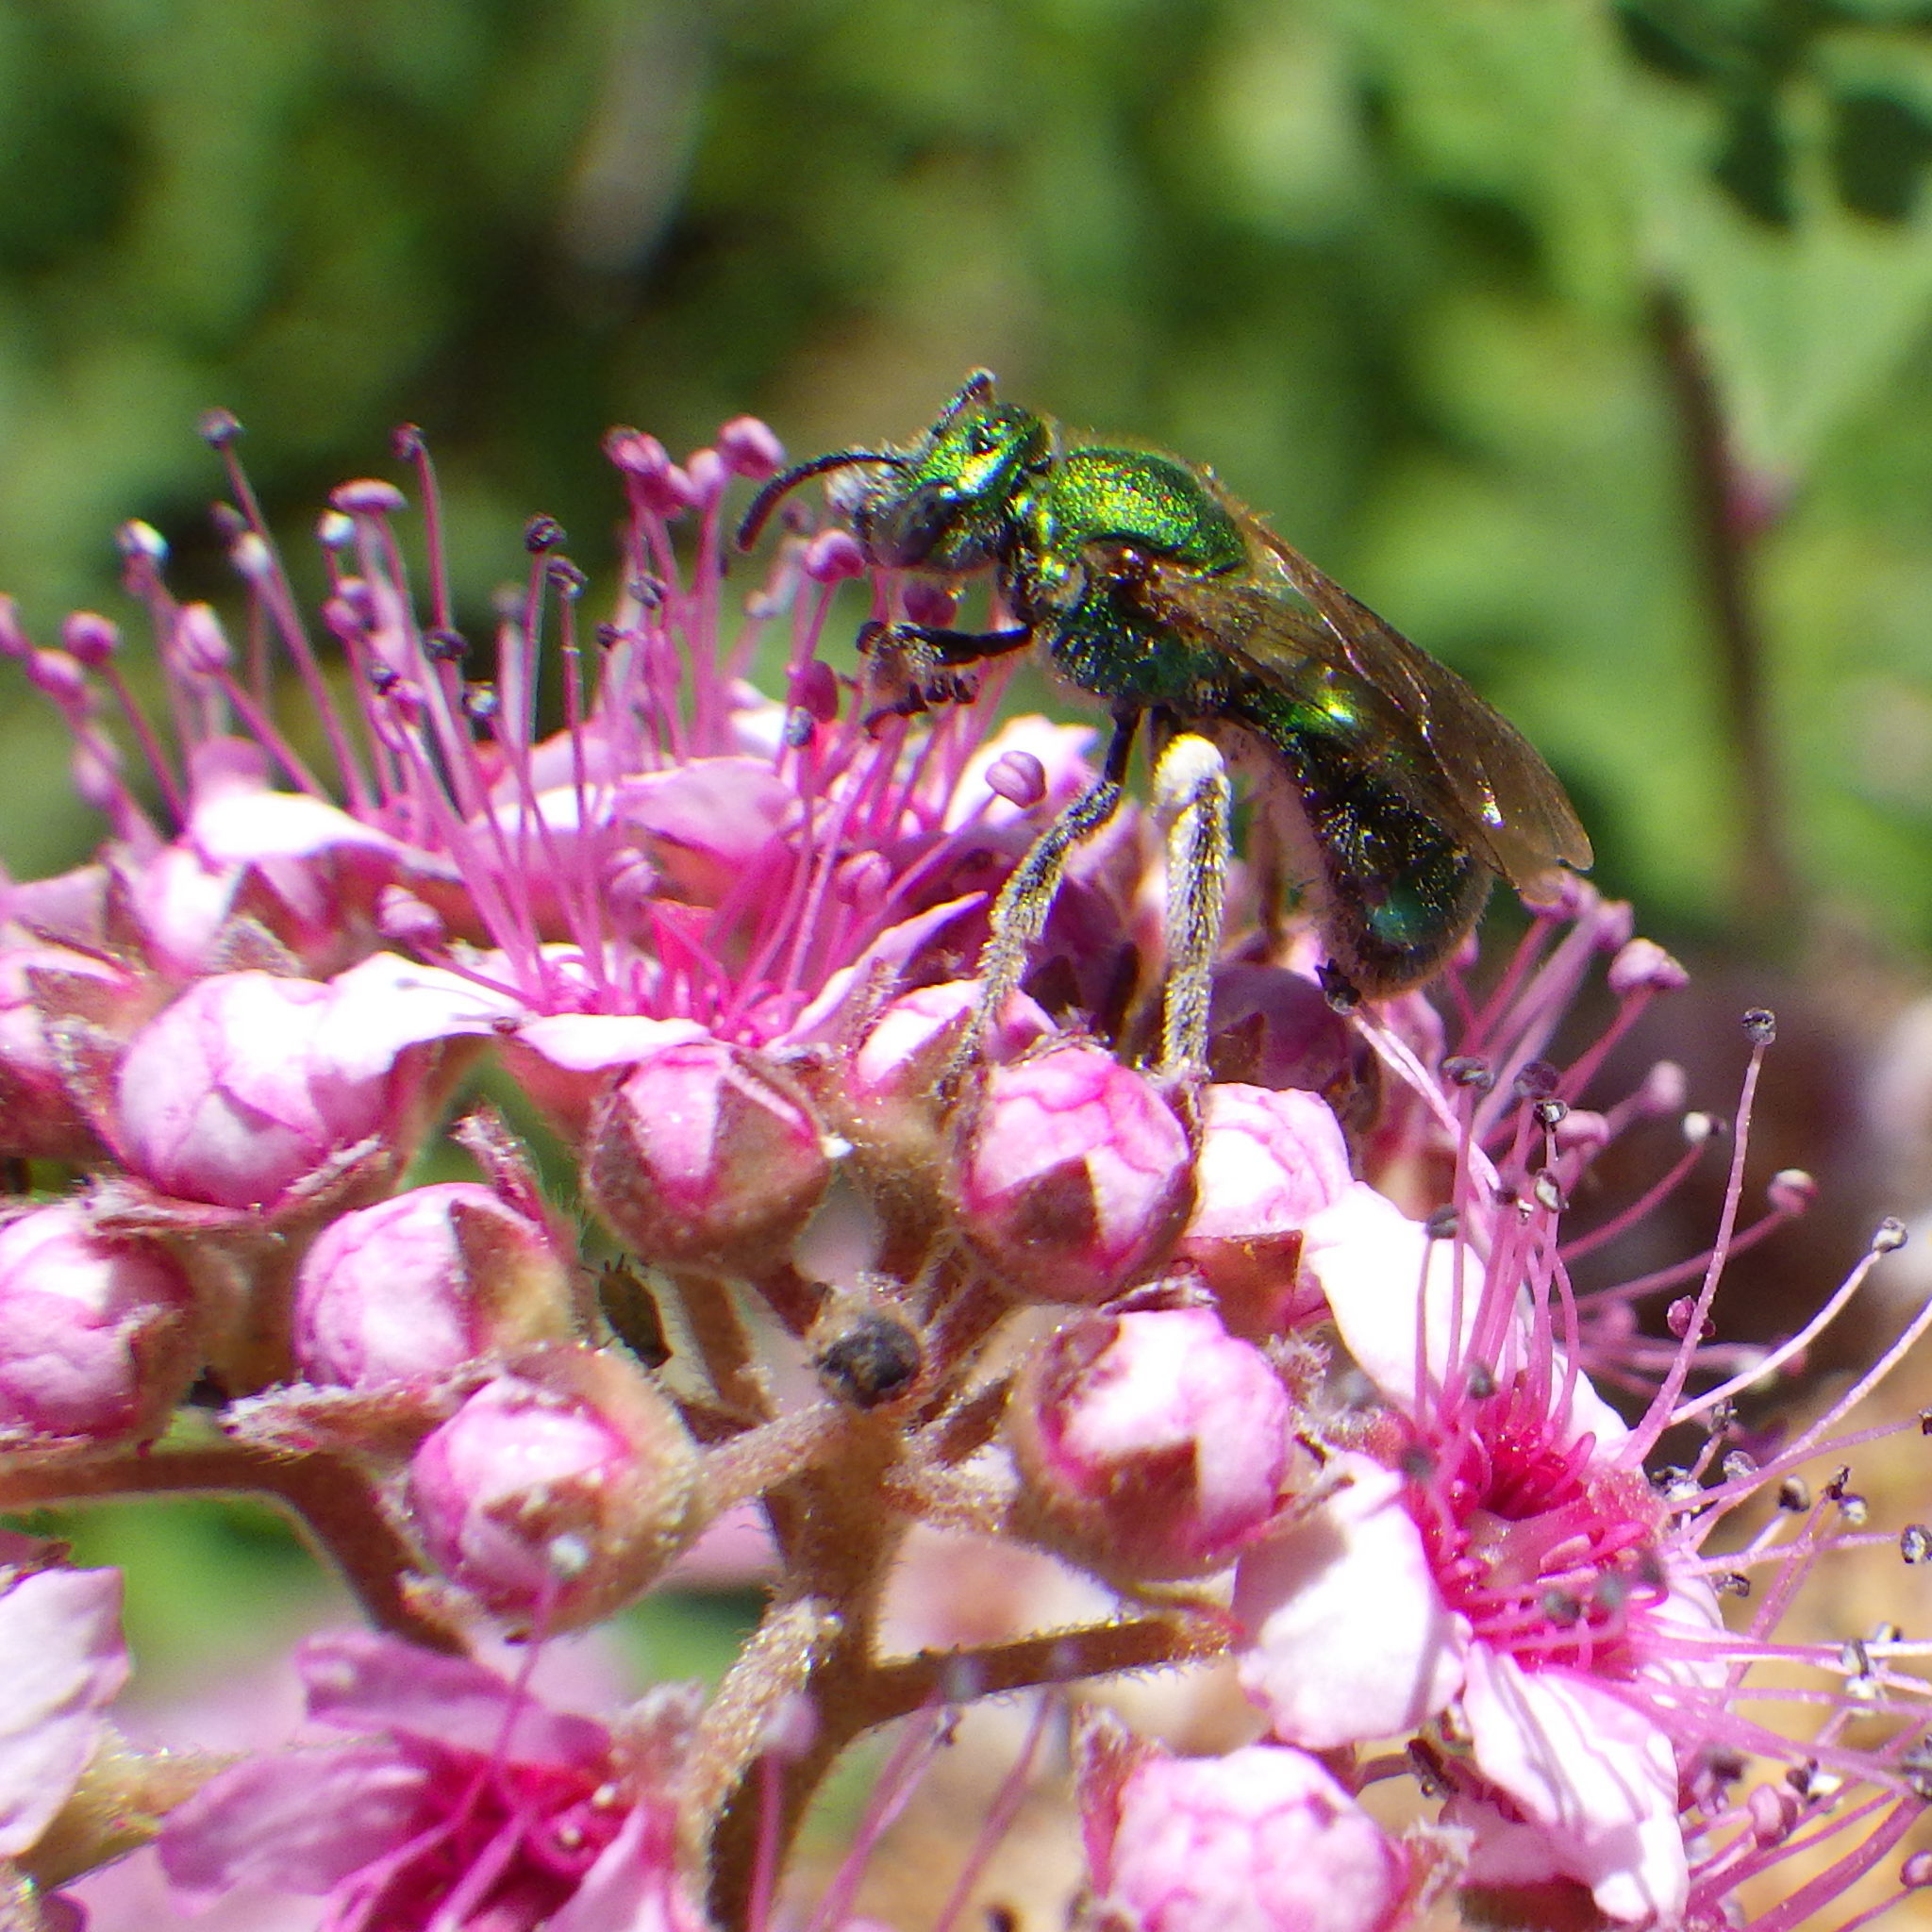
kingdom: Animalia
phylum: Arthropoda
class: Insecta
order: Hymenoptera
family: Halictidae
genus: Augochlorella
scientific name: Augochlorella aurata
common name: Golden sweat bee
